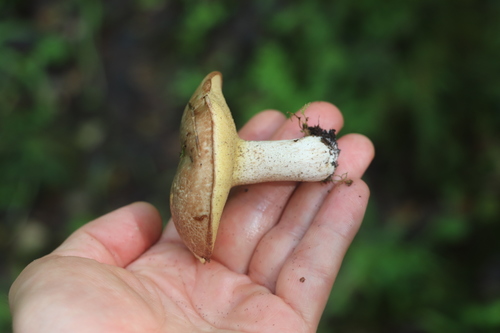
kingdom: Fungi
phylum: Basidiomycota
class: Agaricomycetes
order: Boletales
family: Suillaceae
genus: Suillus
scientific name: Suillus placidus
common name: Slippery white bolete
